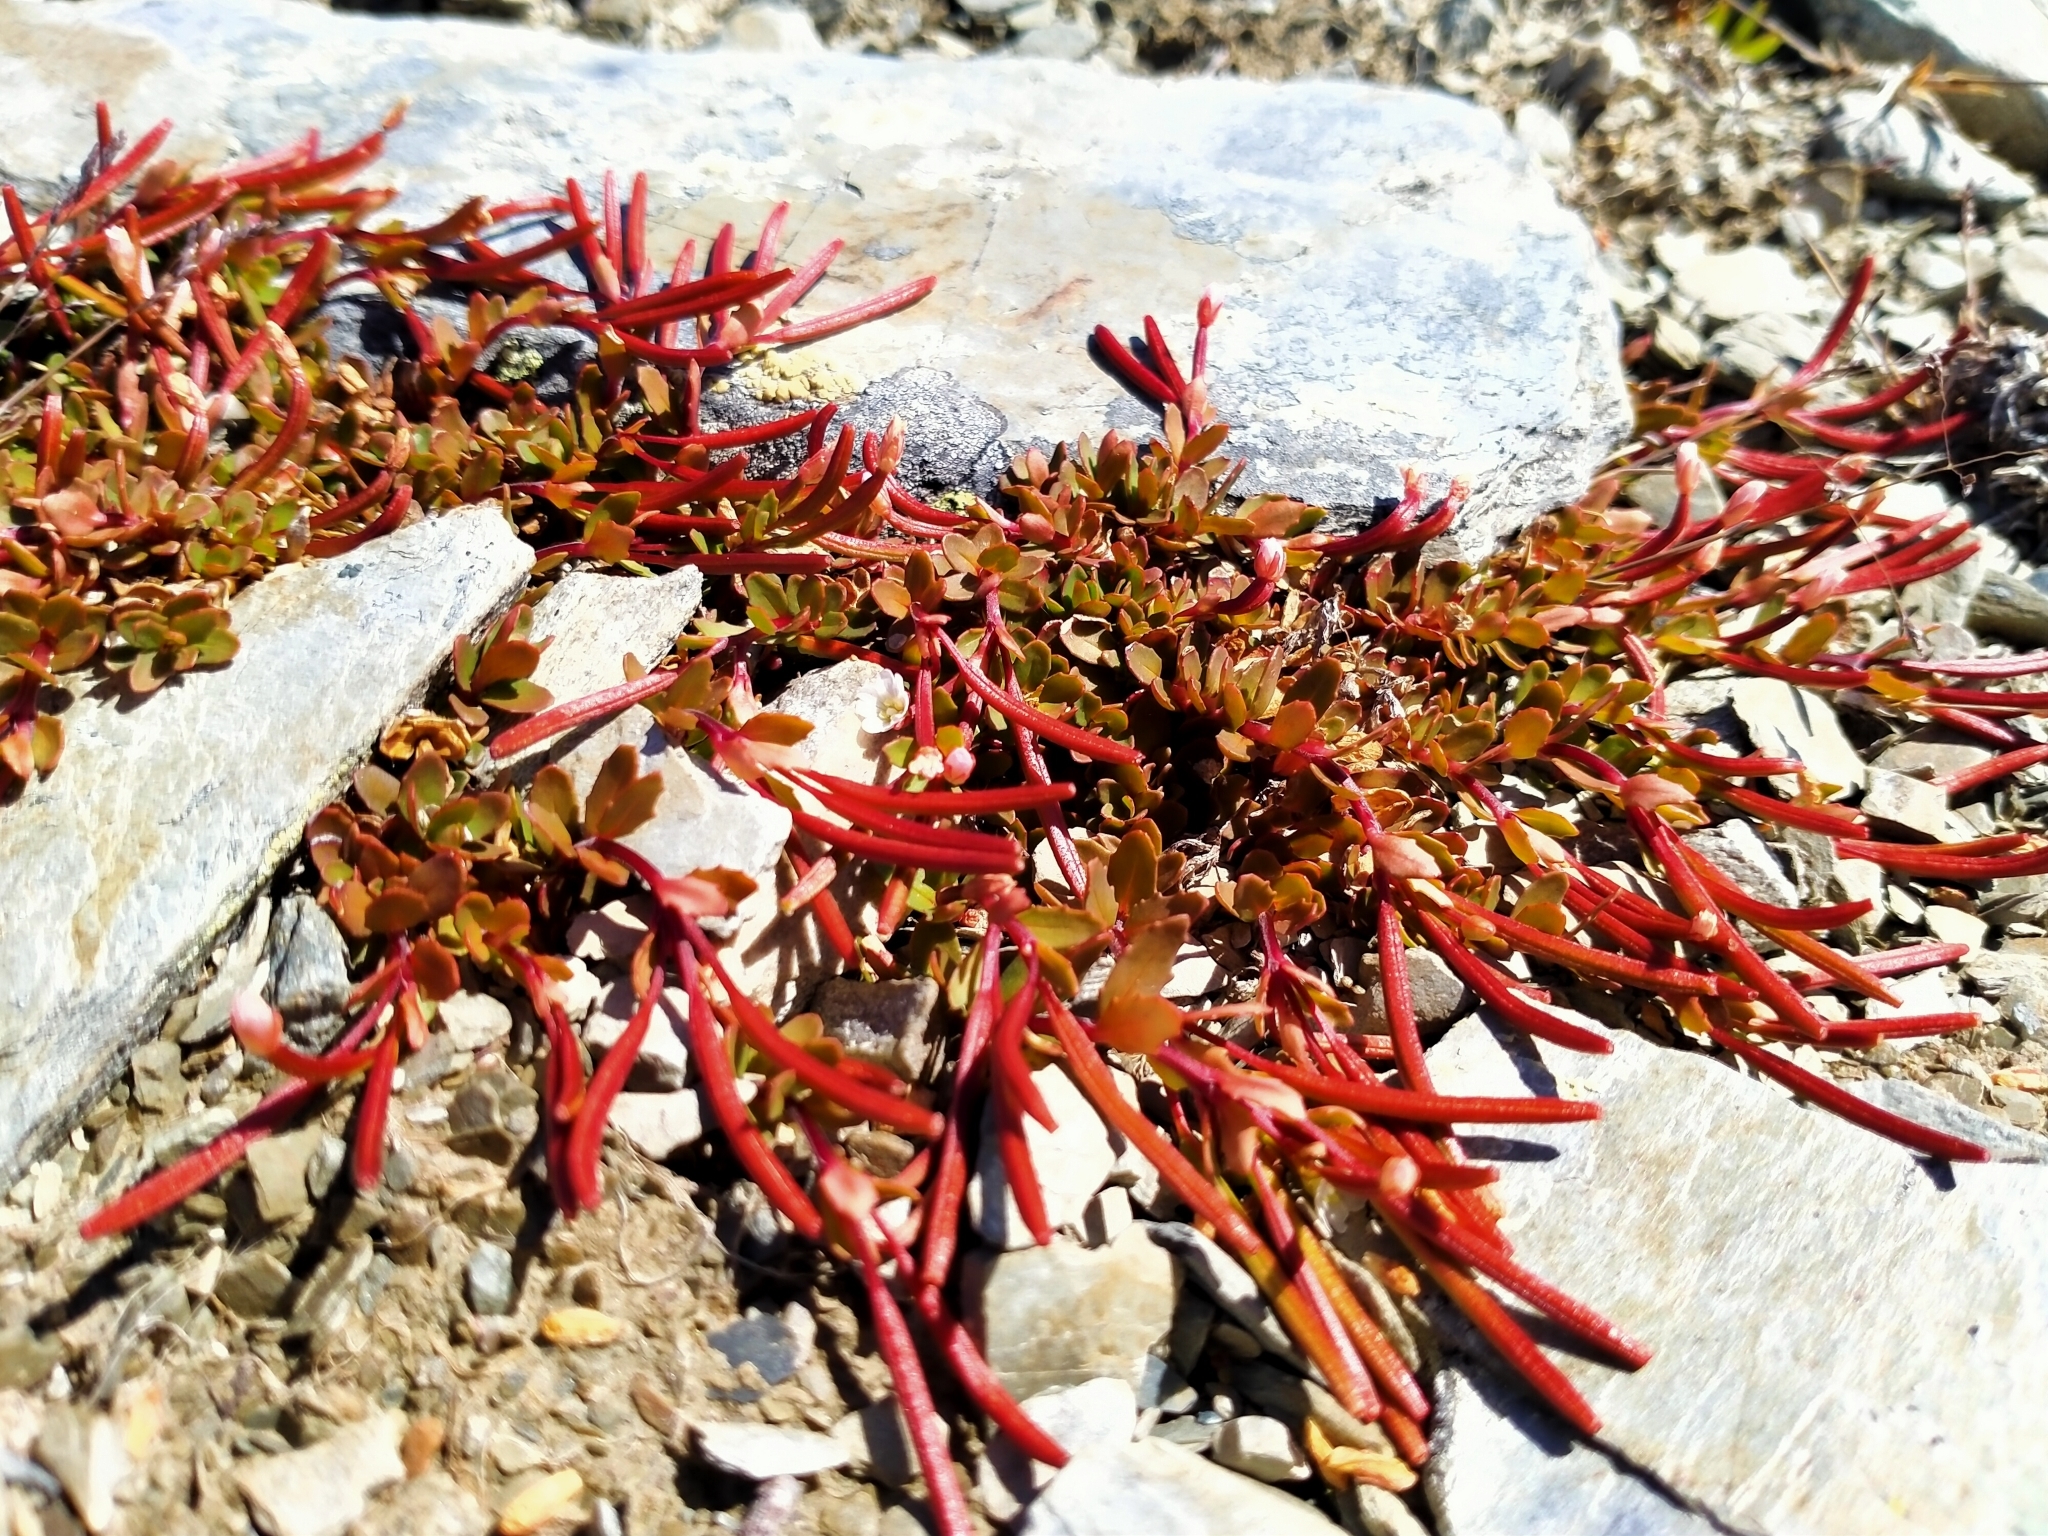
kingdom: Plantae
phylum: Tracheophyta
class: Magnoliopsida
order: Myrtales
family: Onagraceae
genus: Epilobium
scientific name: Epilobium tasmanicum
